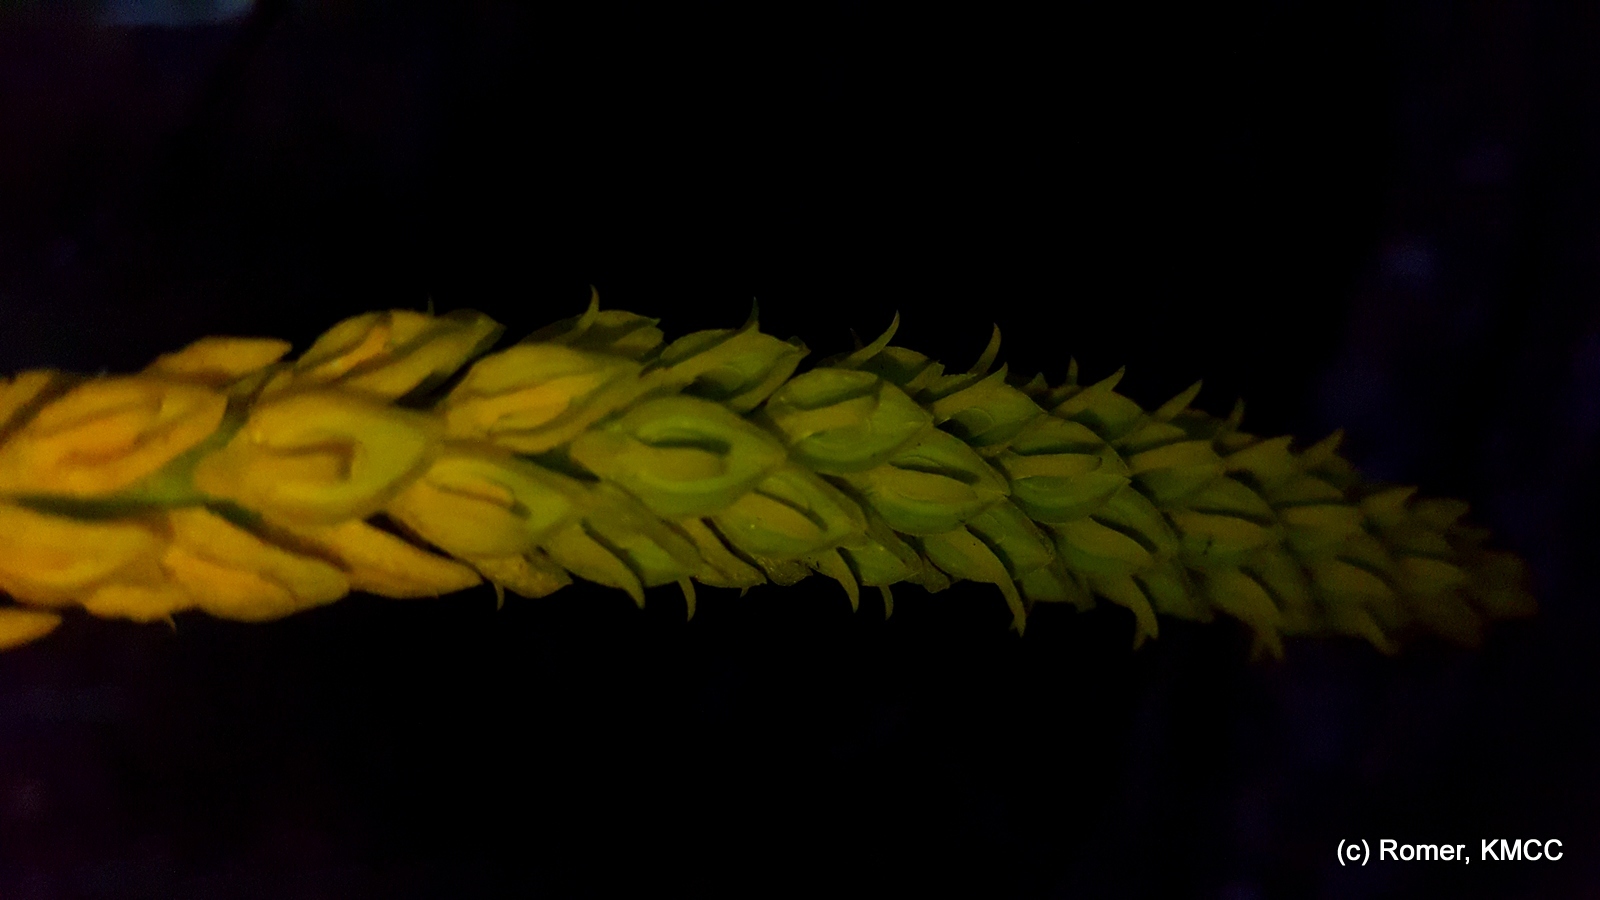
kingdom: Plantae
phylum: Tracheophyta
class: Liliopsida
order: Asparagales
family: Orchidaceae
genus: Bulbophyllum
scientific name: Bulbophyllum labatii
